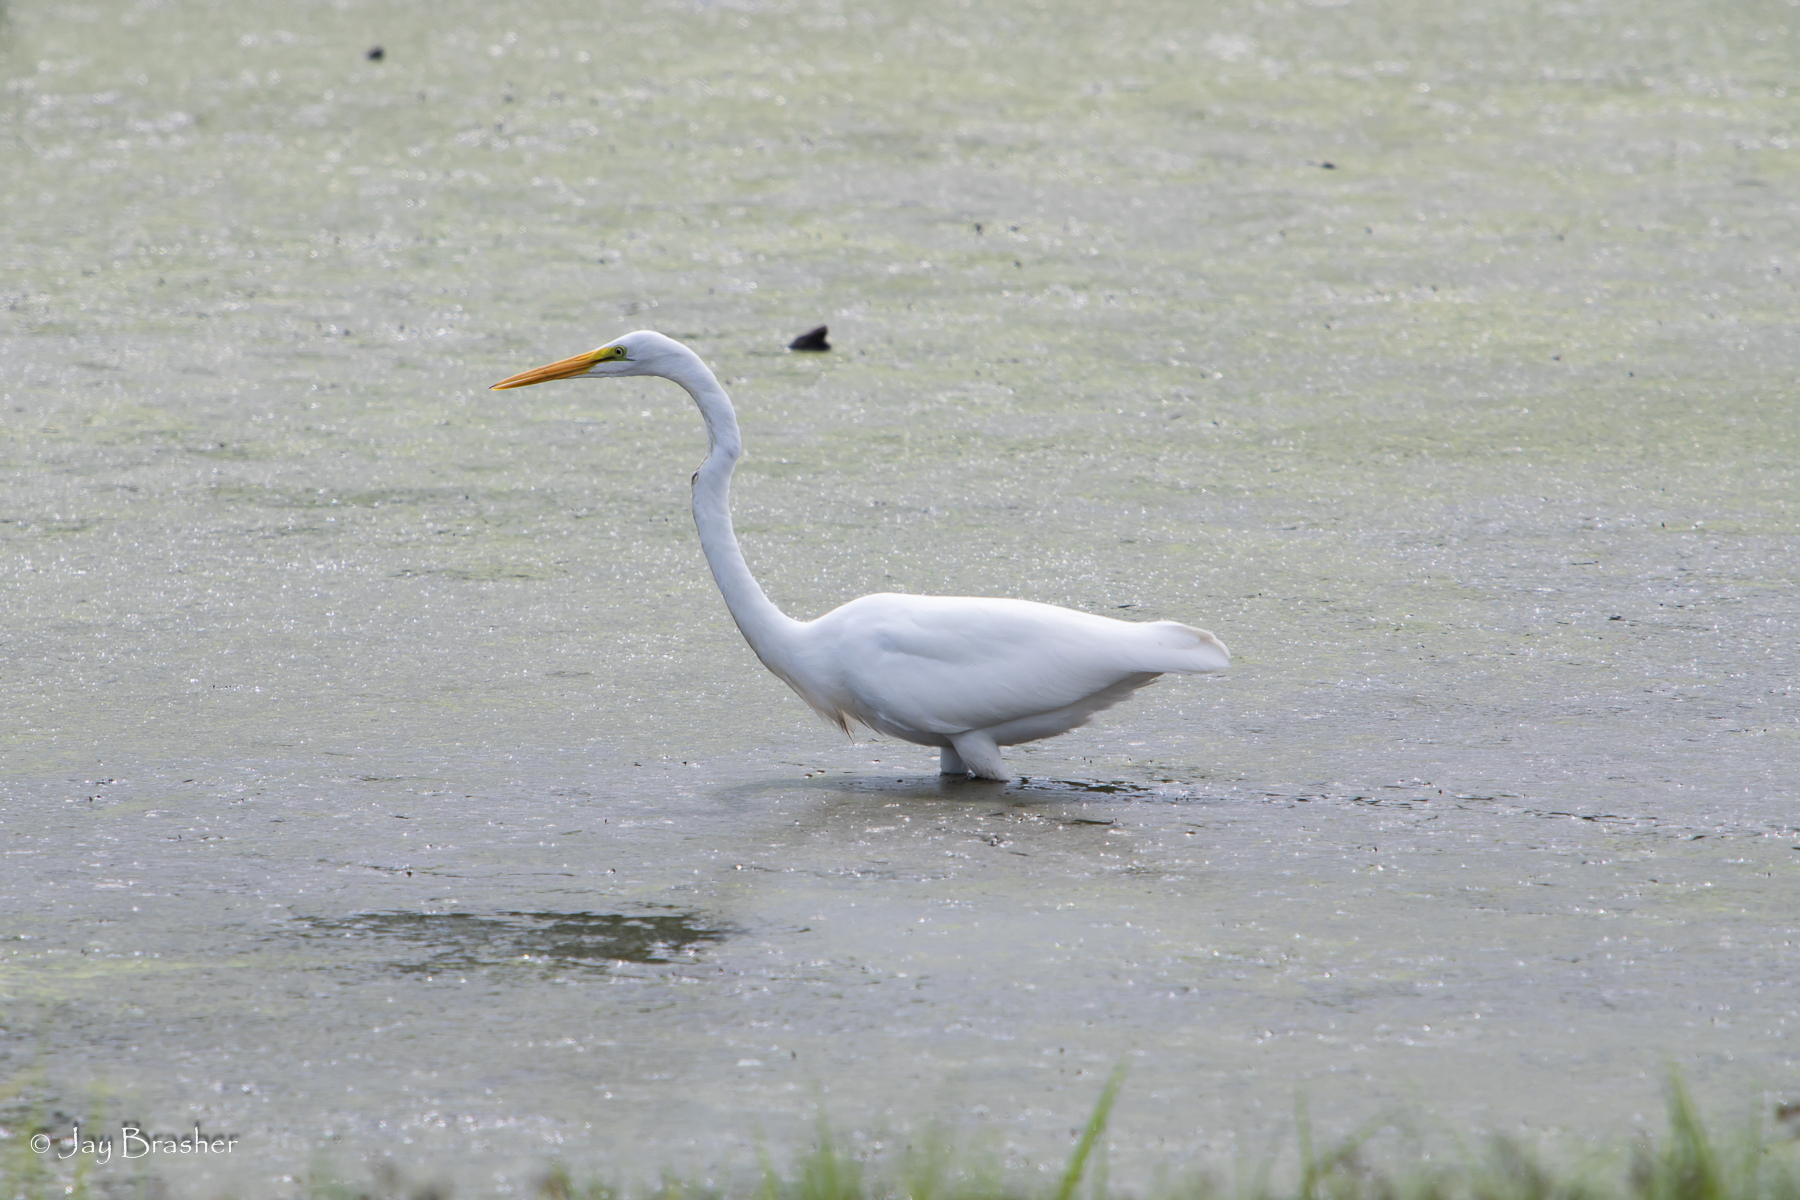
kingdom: Animalia
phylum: Chordata
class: Aves
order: Pelecaniformes
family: Ardeidae
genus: Ardea
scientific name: Ardea alba
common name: Great egret
